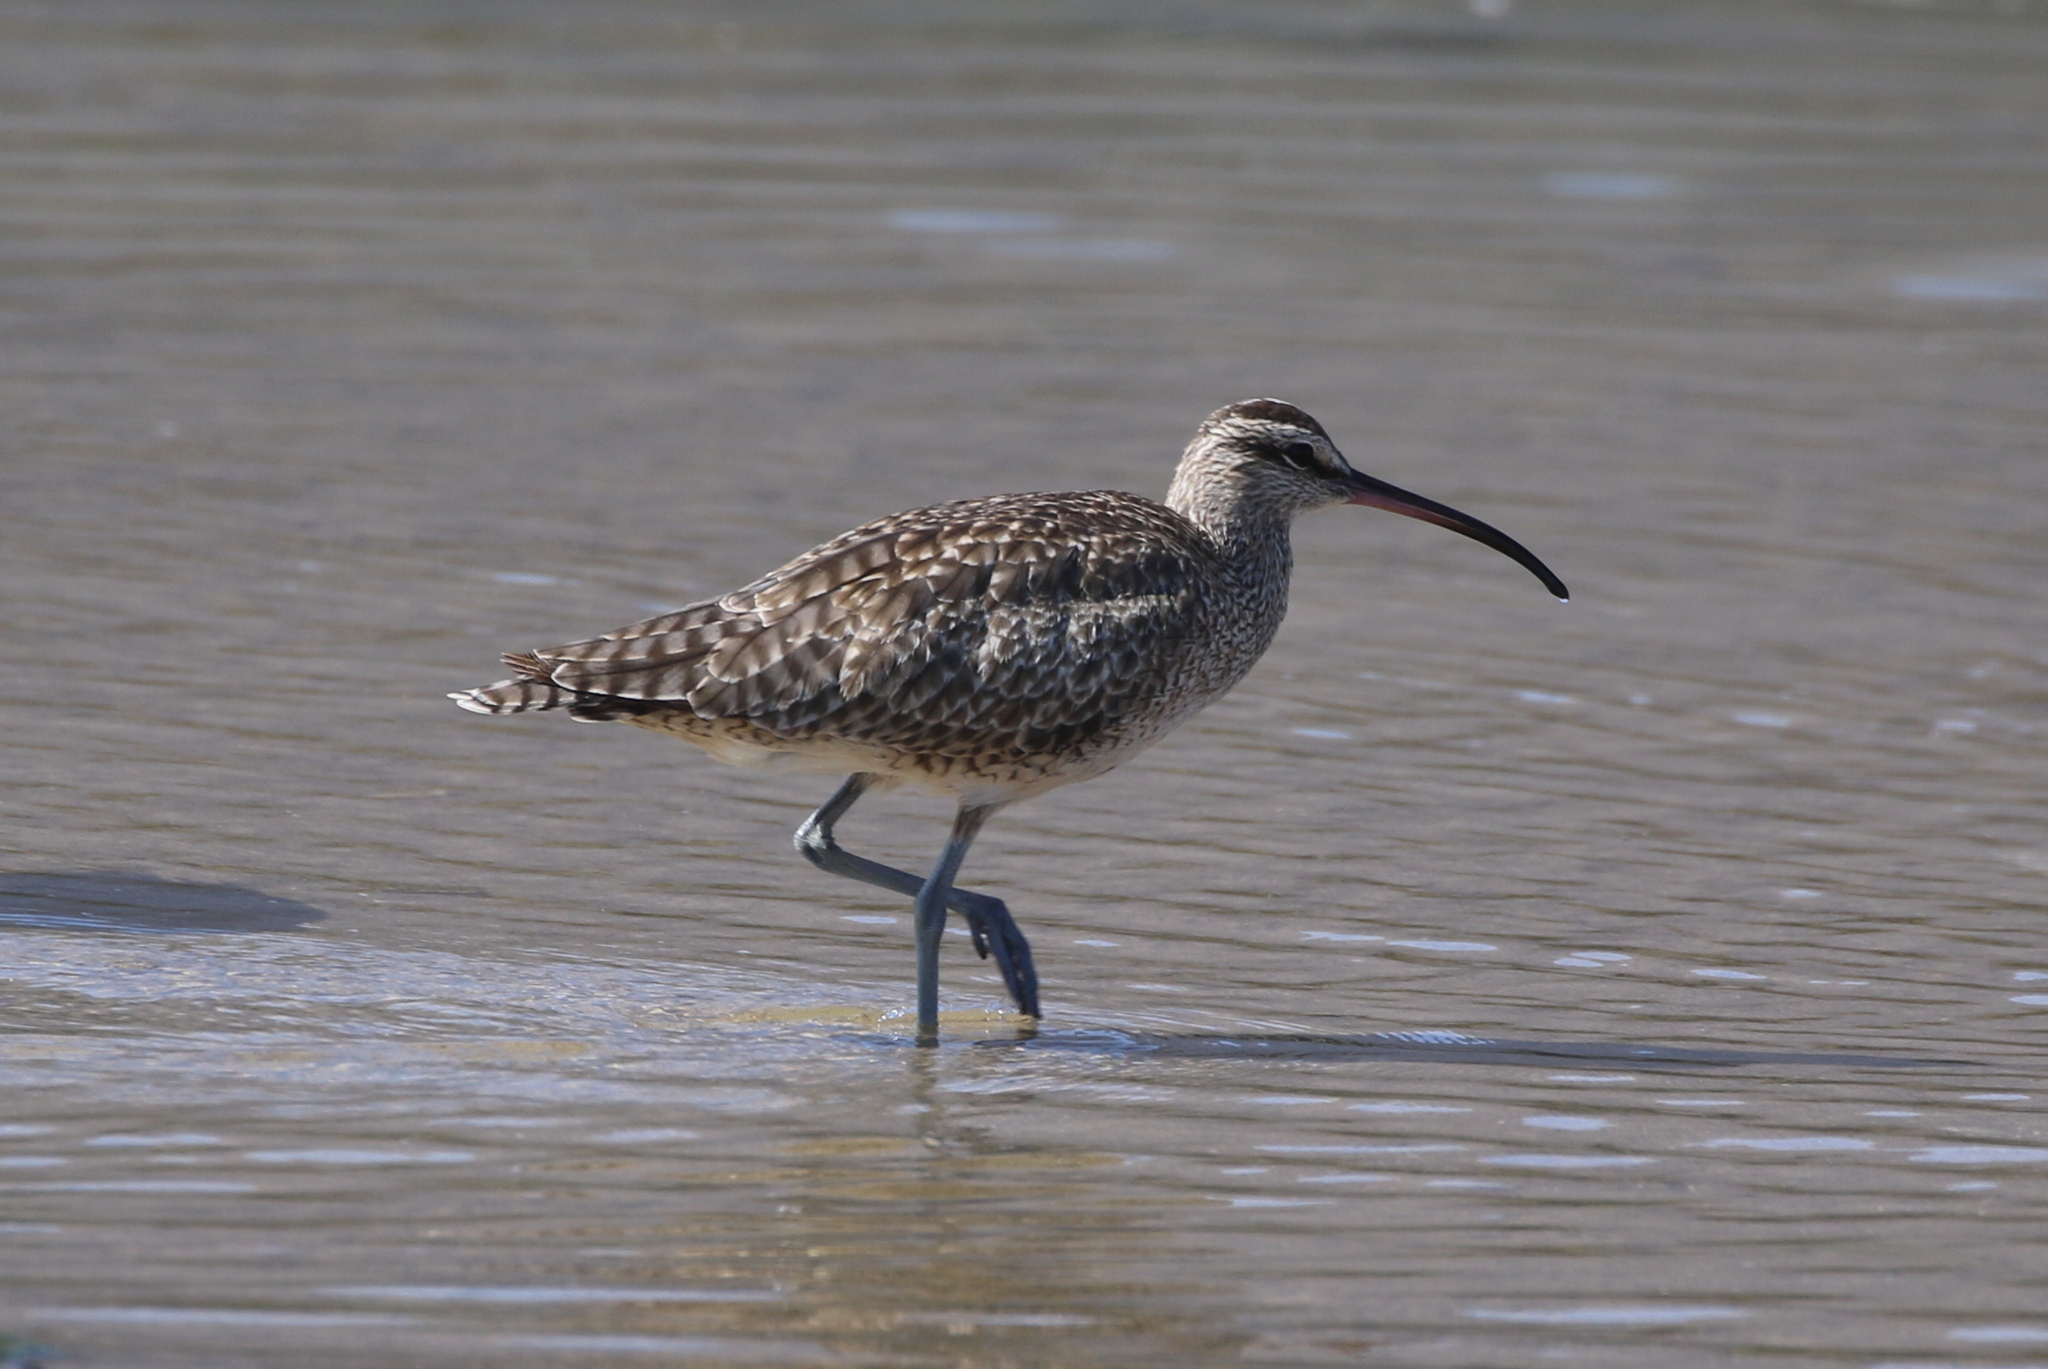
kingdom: Animalia
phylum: Chordata
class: Aves
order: Charadriiformes
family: Scolopacidae
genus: Numenius
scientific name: Numenius phaeopus
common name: Whimbrel
